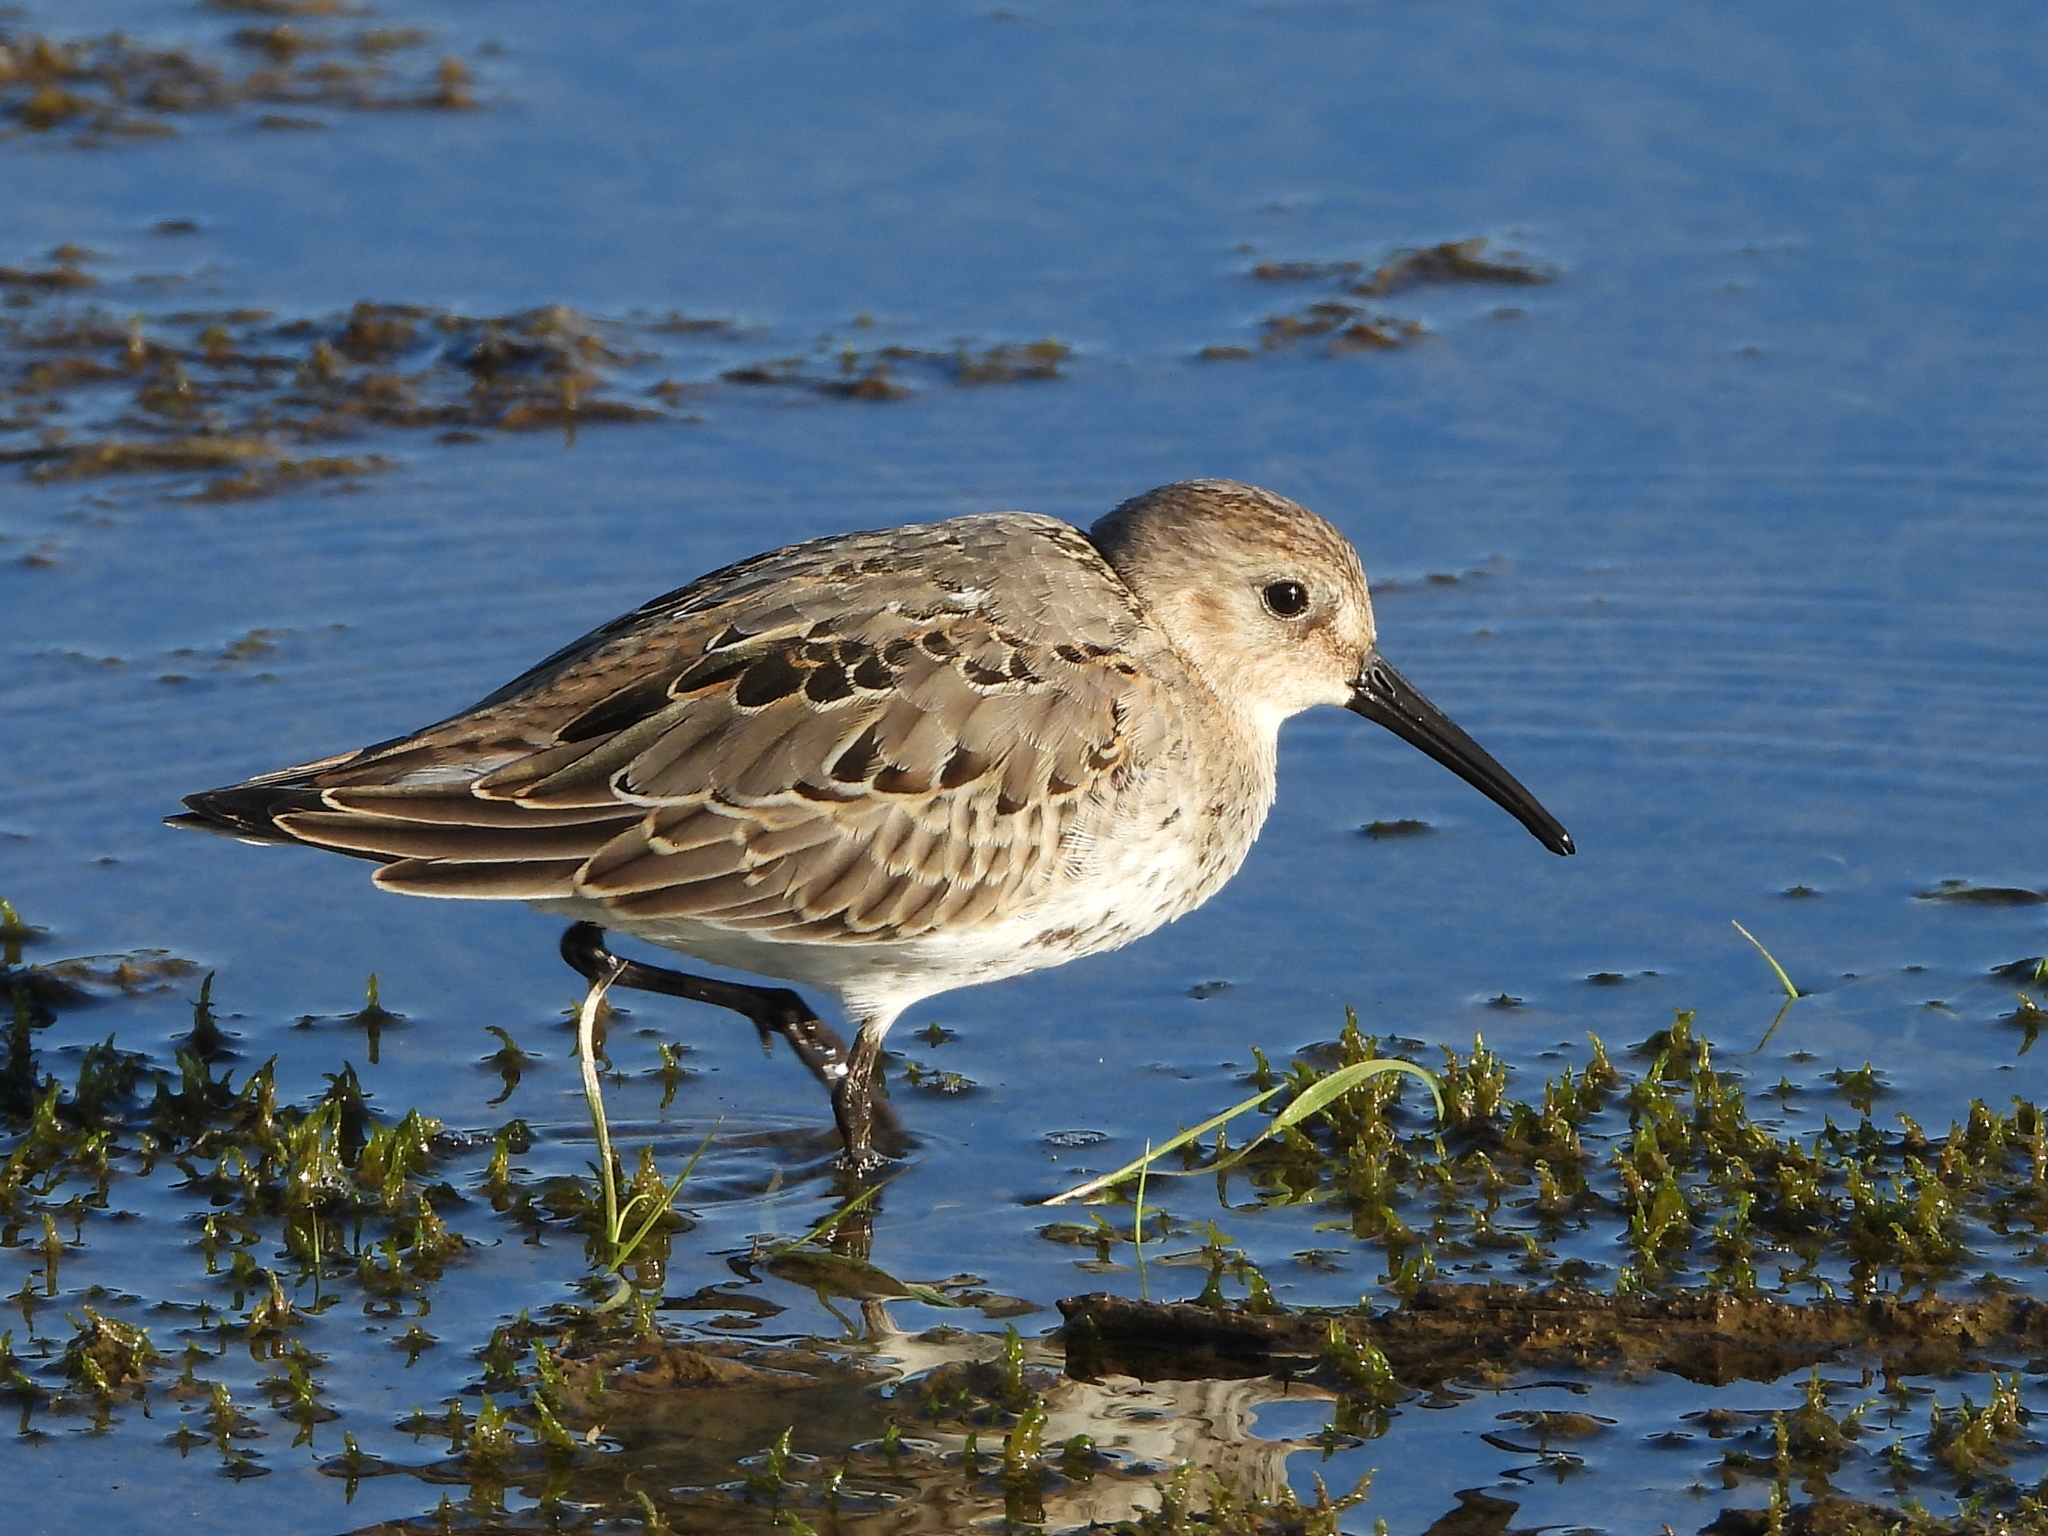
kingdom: Animalia
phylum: Chordata
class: Aves
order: Charadriiformes
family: Scolopacidae
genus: Calidris
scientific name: Calidris alpina
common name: Dunlin
